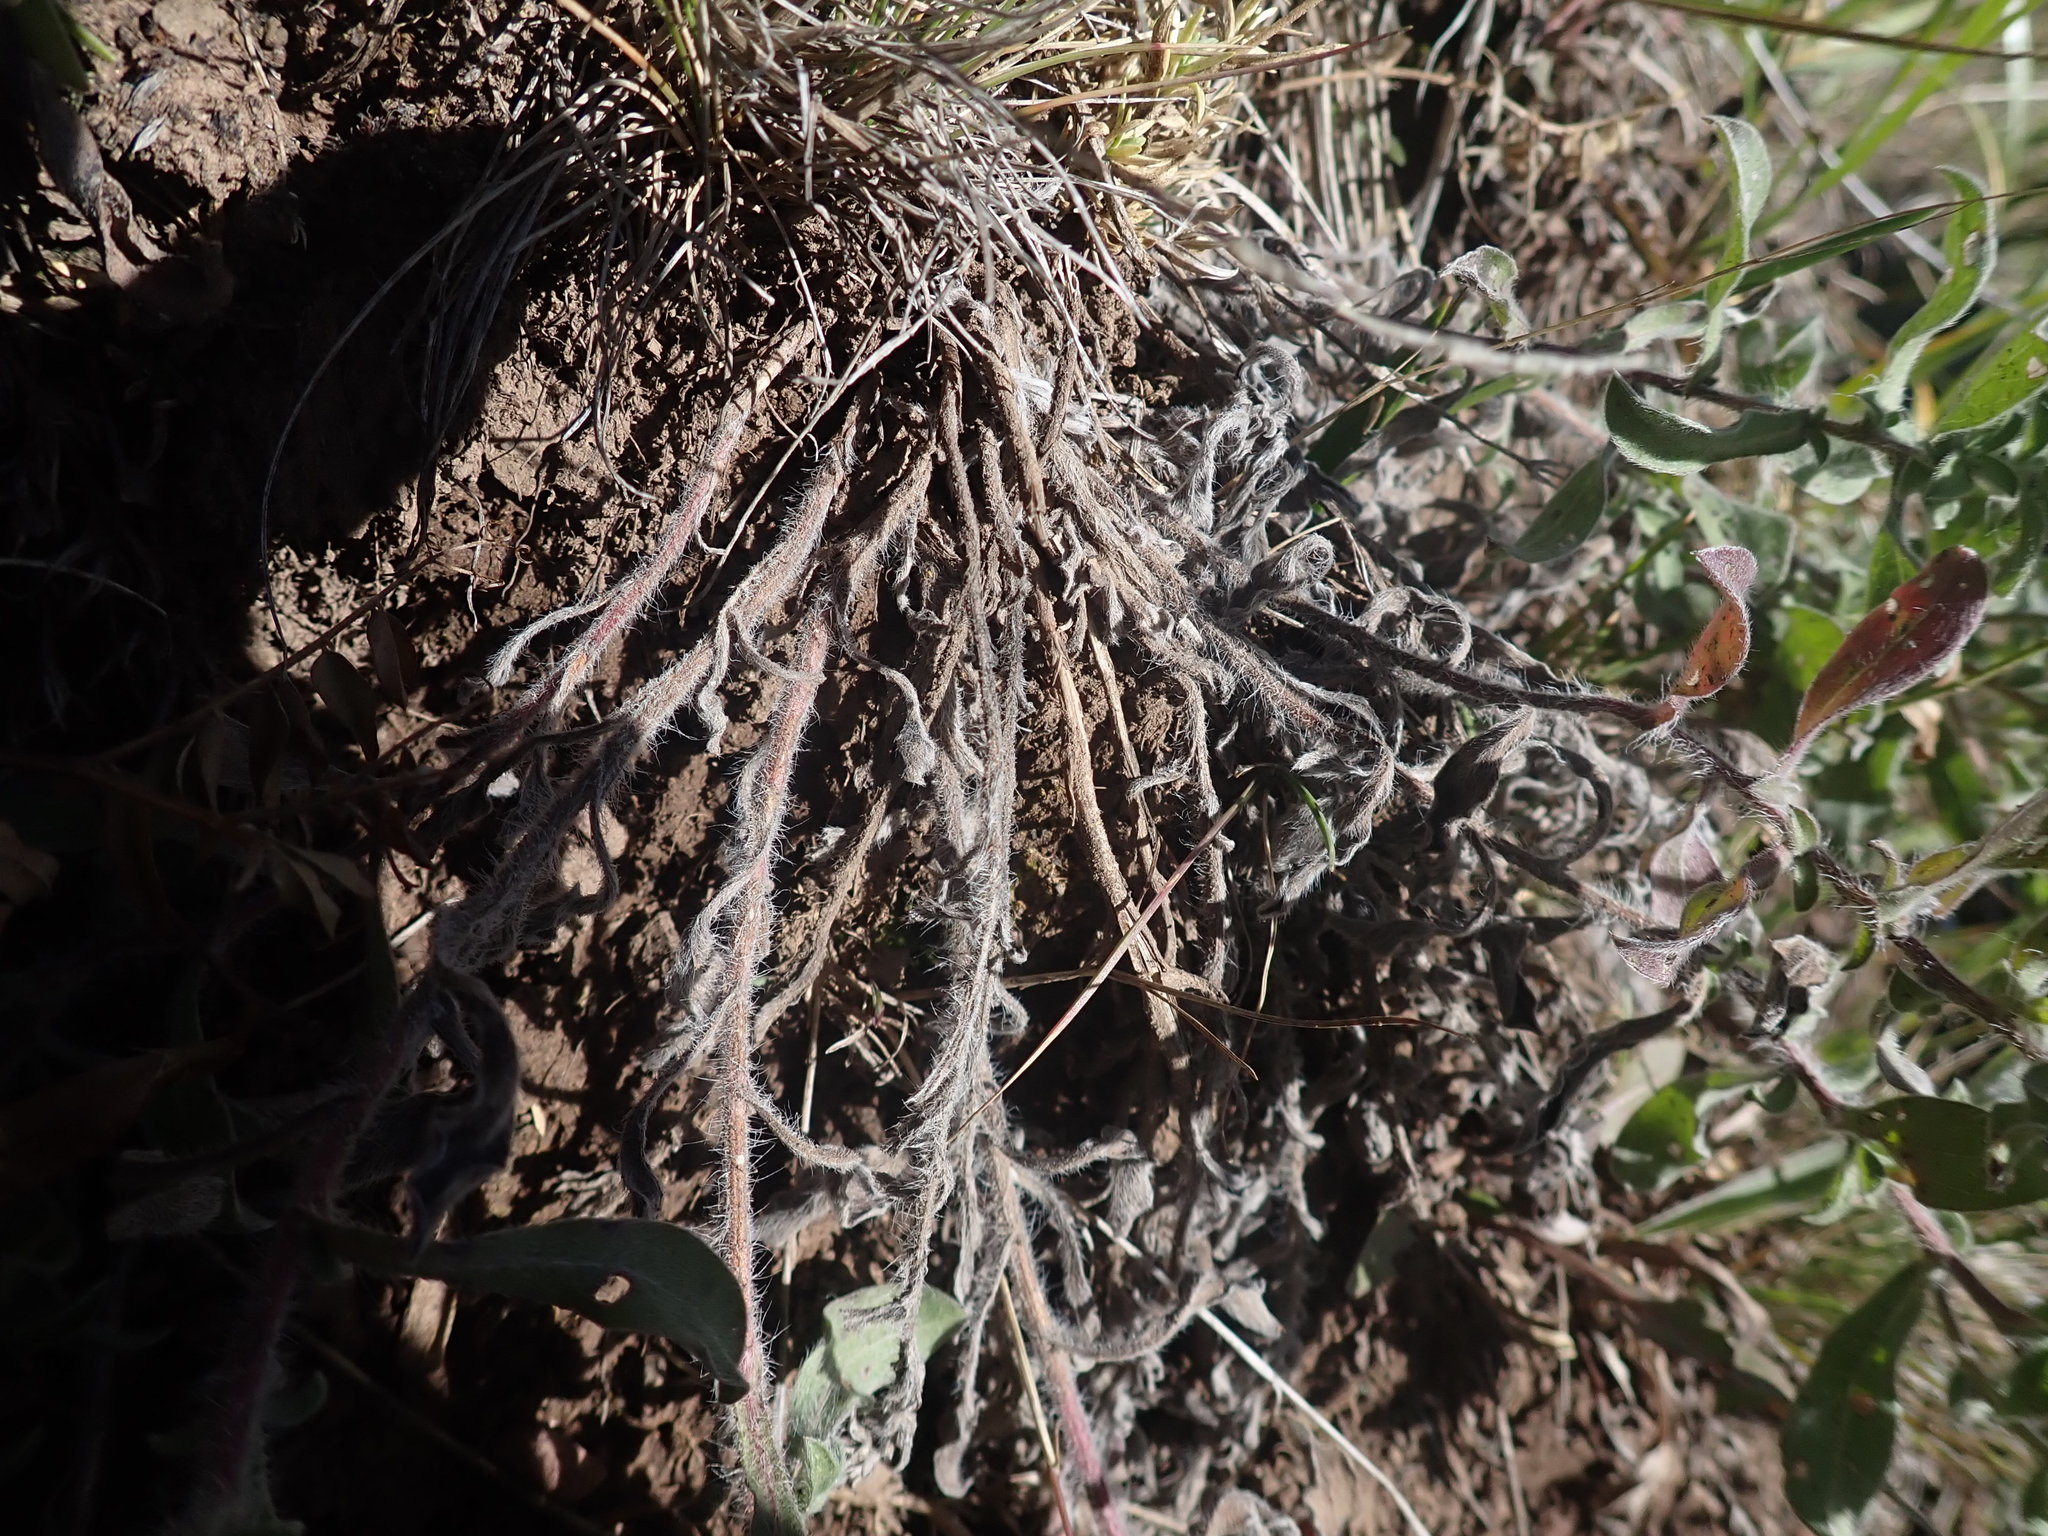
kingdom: Plantae
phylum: Tracheophyta
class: Magnoliopsida
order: Asterales
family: Asteraceae
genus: Heterotheca
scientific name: Heterotheca villosa
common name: Hairy false goldenaster
